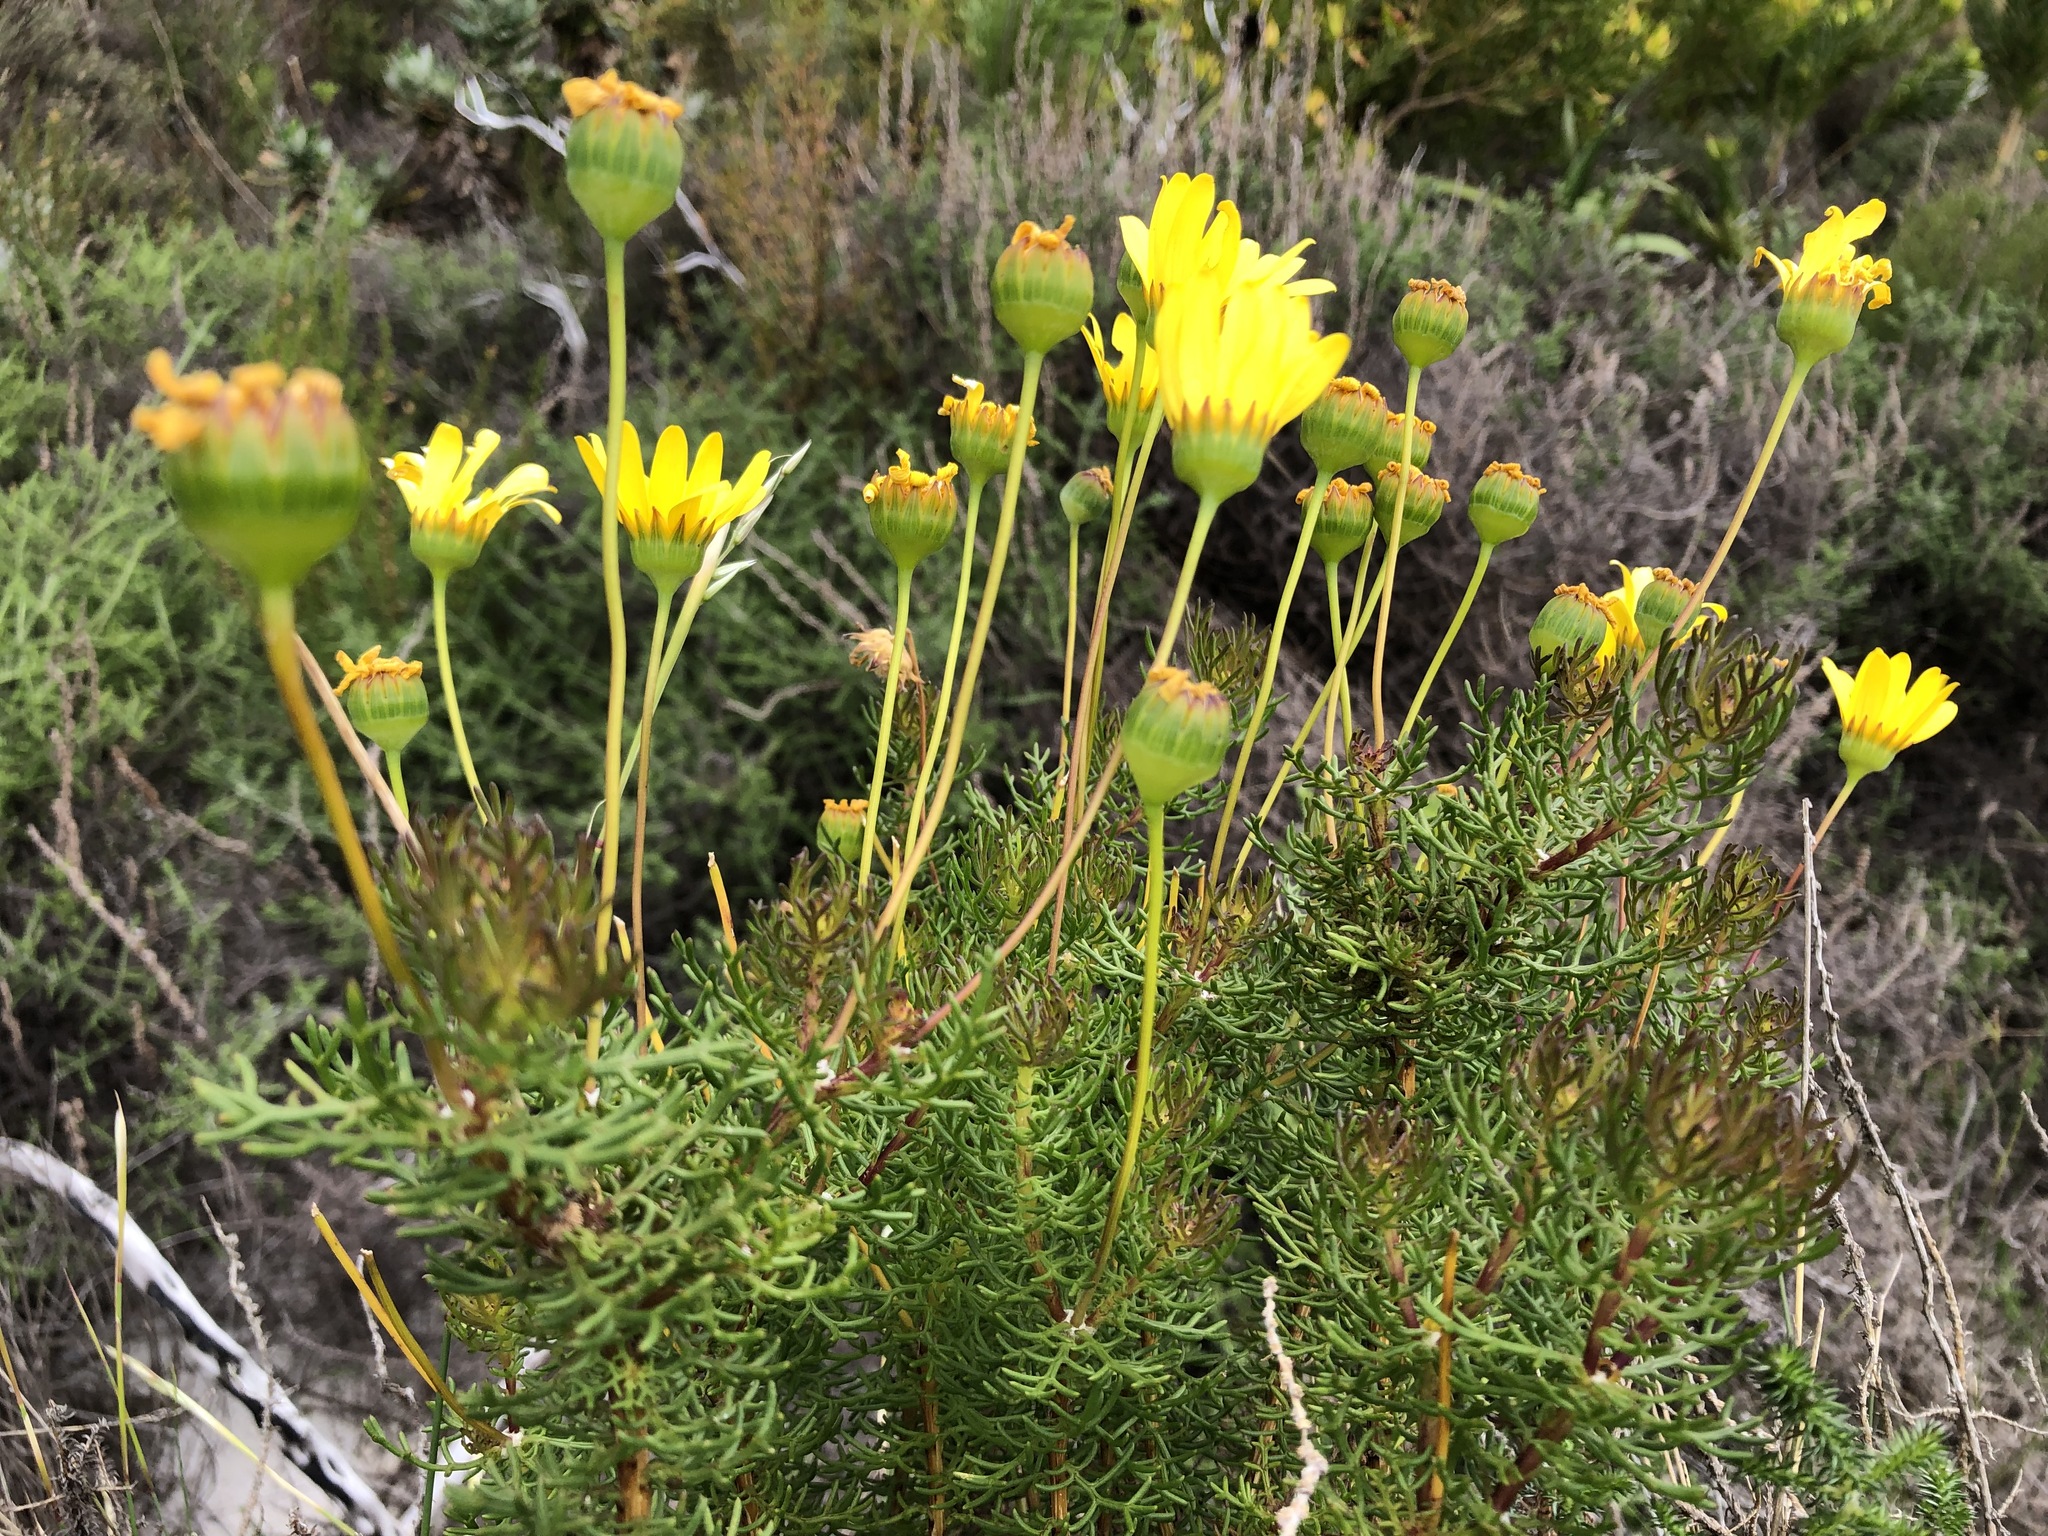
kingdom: Plantae
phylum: Tracheophyta
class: Magnoliopsida
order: Asterales
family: Asteraceae
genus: Euryops
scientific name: Euryops abrotanifolius
